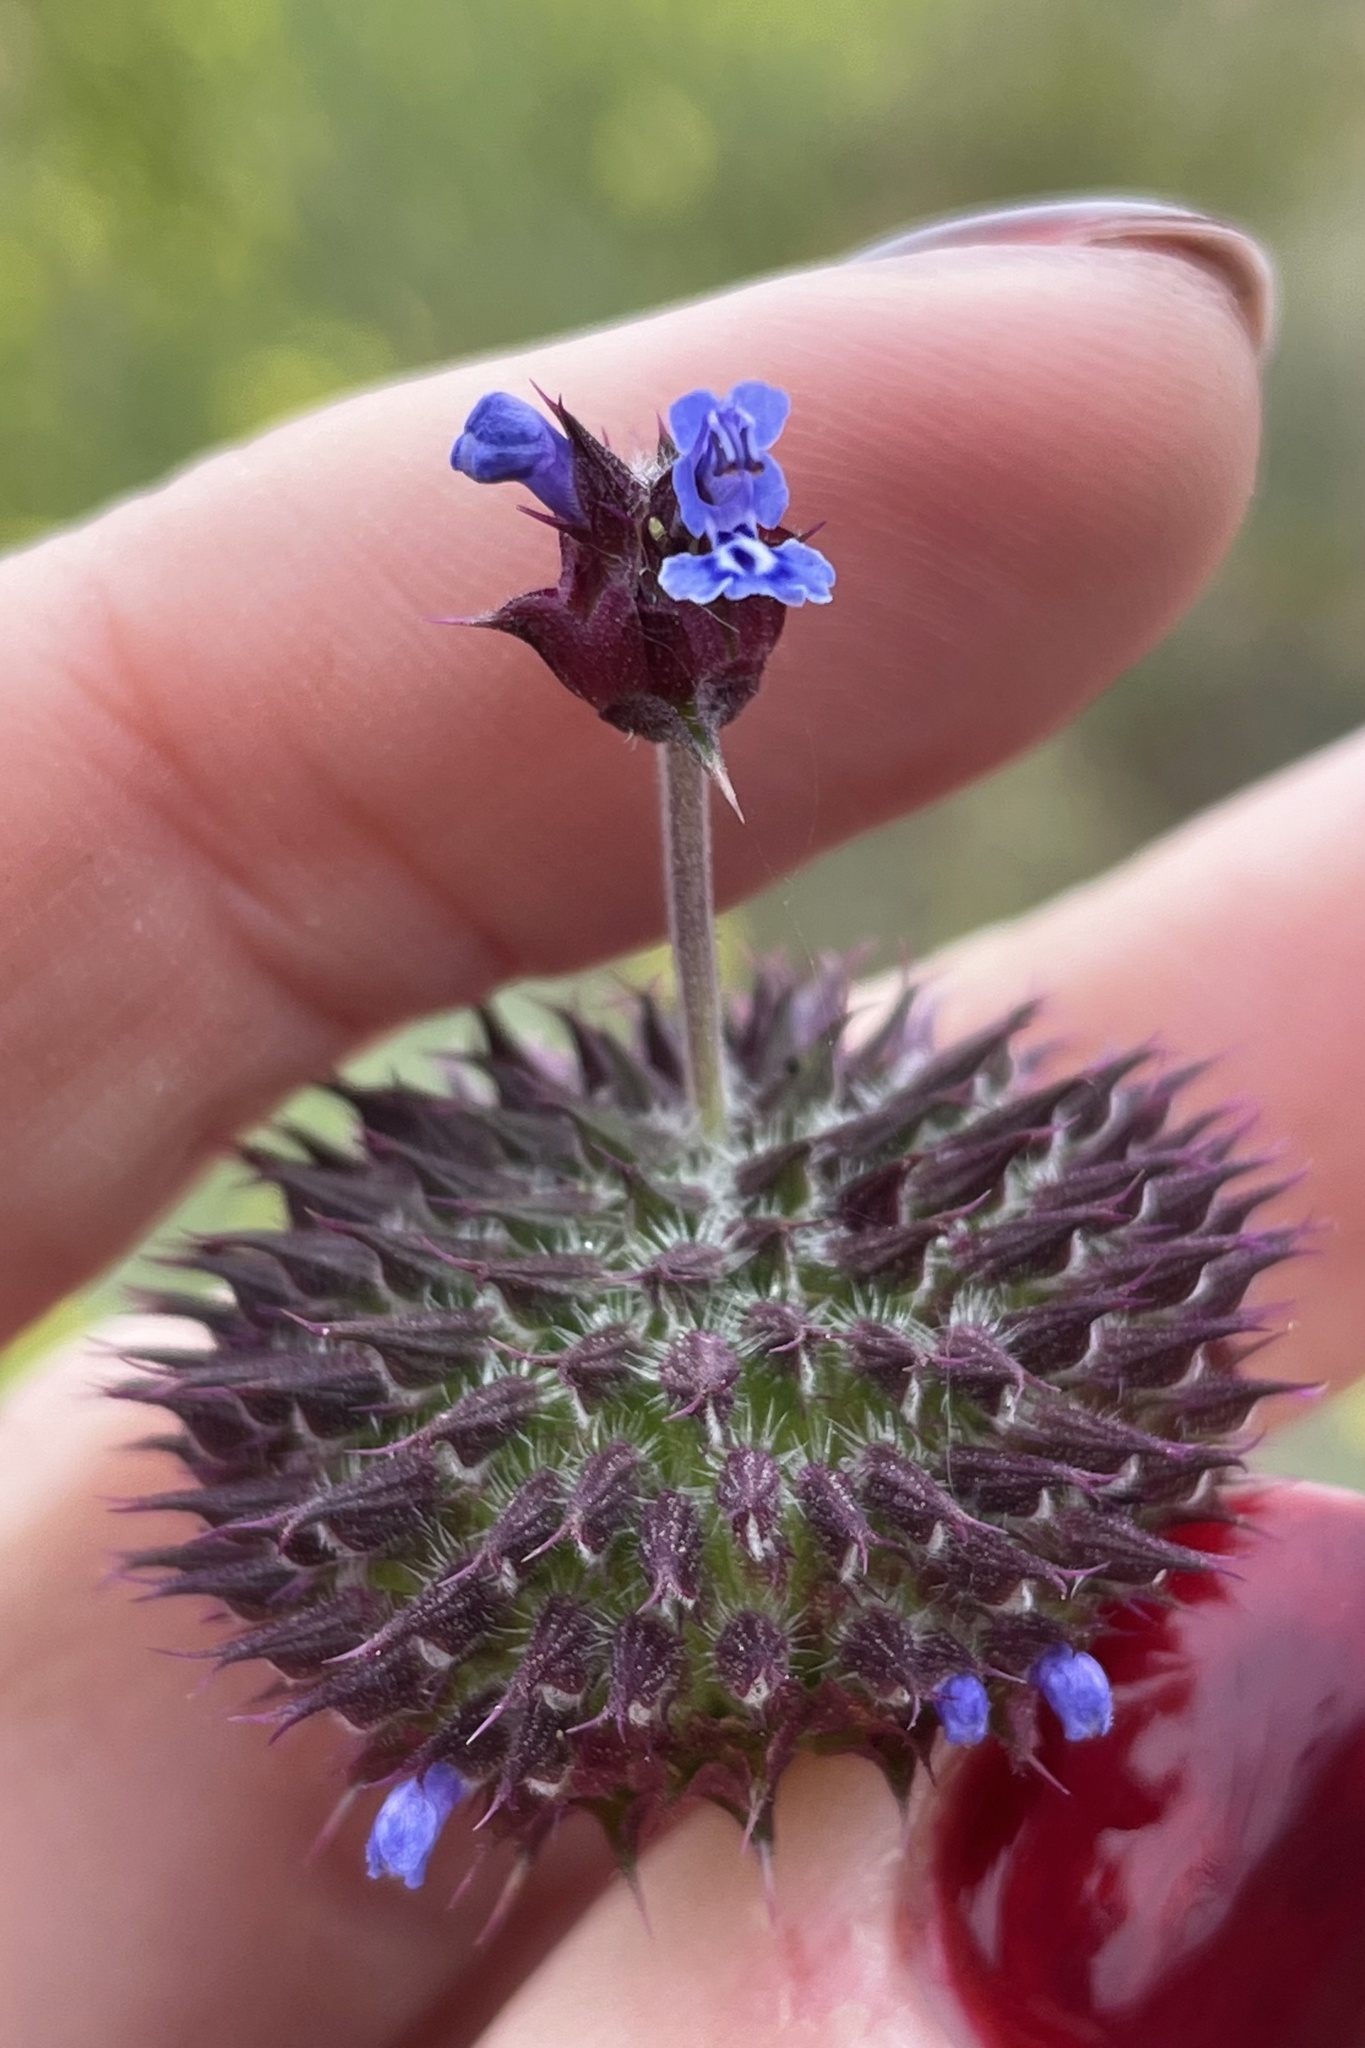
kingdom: Plantae
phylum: Tracheophyta
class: Magnoliopsida
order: Lamiales
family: Lamiaceae
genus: Salvia
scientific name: Salvia columbariae
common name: Chia
